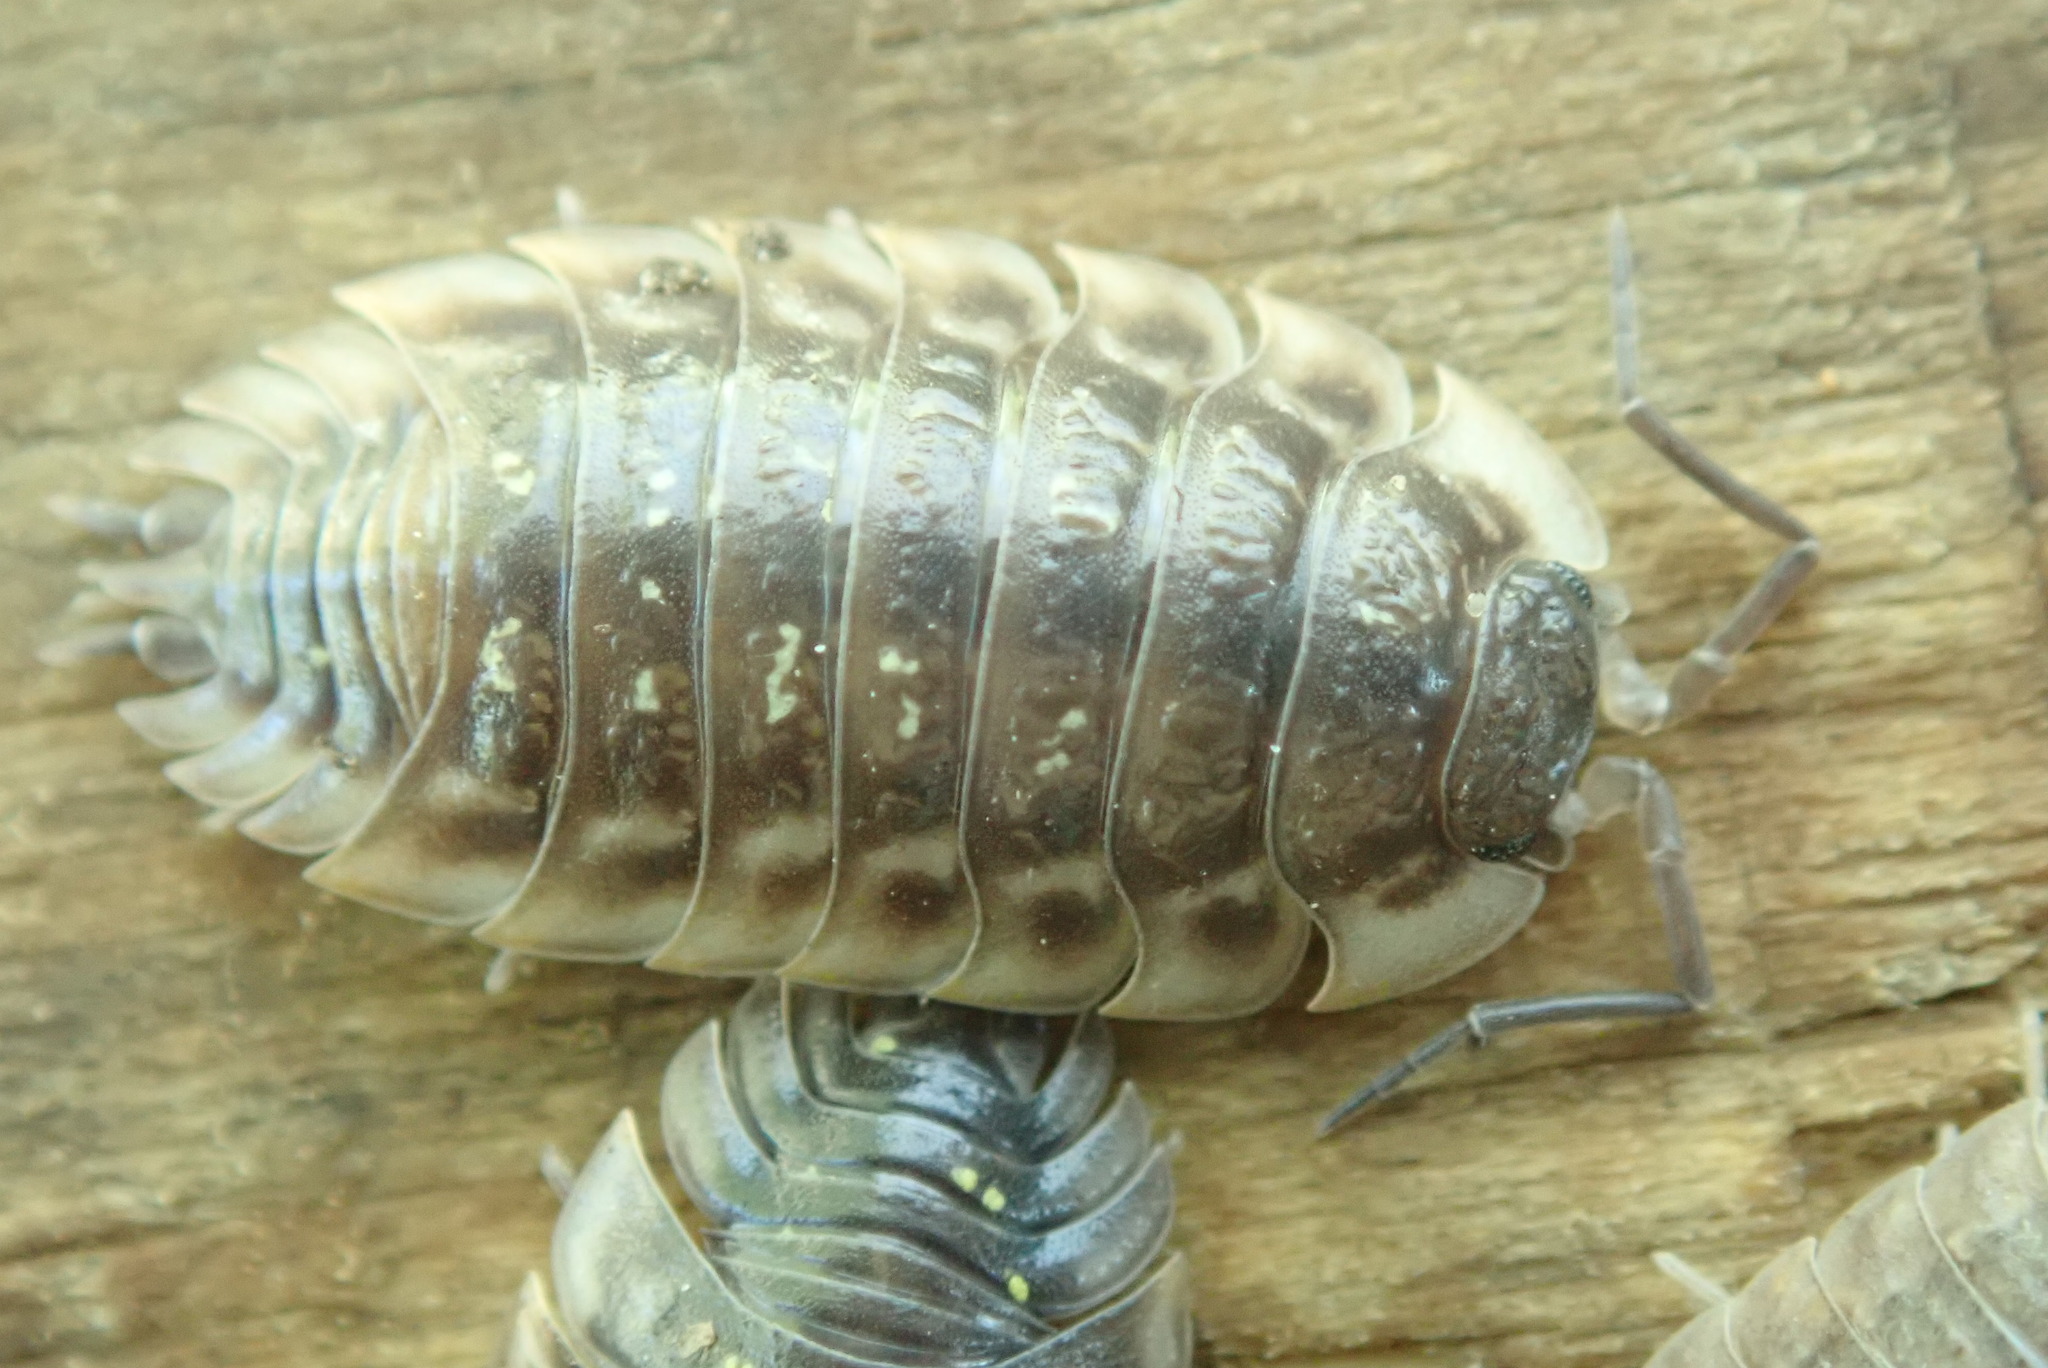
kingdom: Animalia
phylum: Arthropoda
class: Malacostraca
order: Isopoda
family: Oniscidae
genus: Oniscus
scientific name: Oniscus asellus
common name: Common shiny woodlouse
